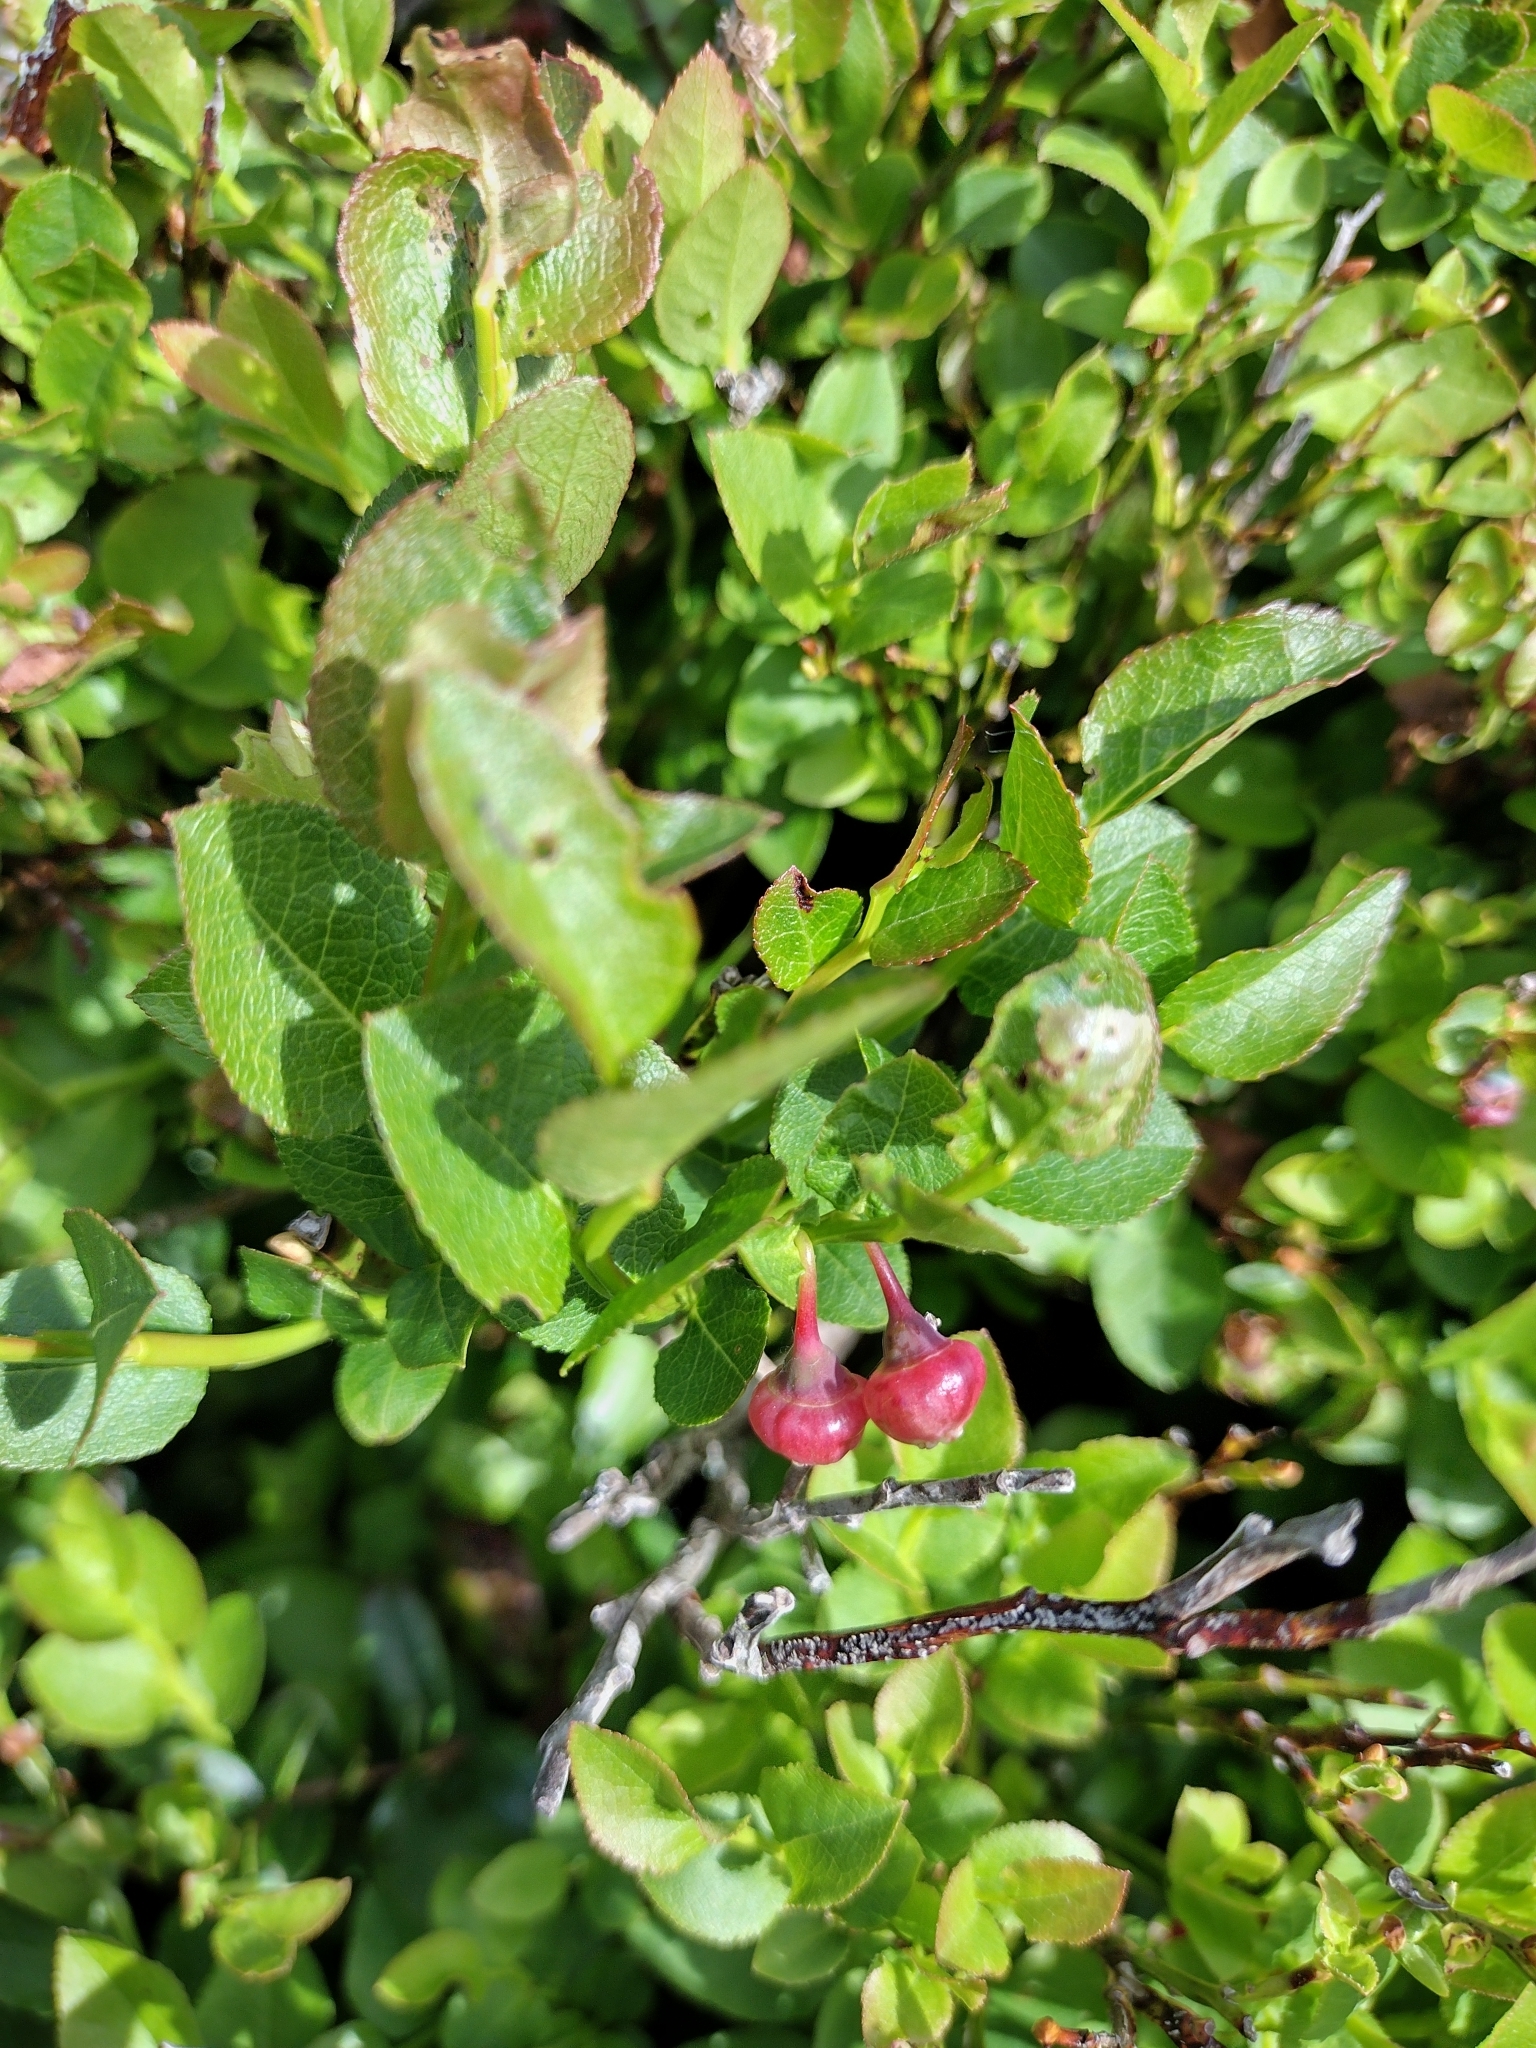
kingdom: Plantae
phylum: Tracheophyta
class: Magnoliopsida
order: Ericales
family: Ericaceae
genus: Vaccinium
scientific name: Vaccinium myrtillus
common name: Bilberry
